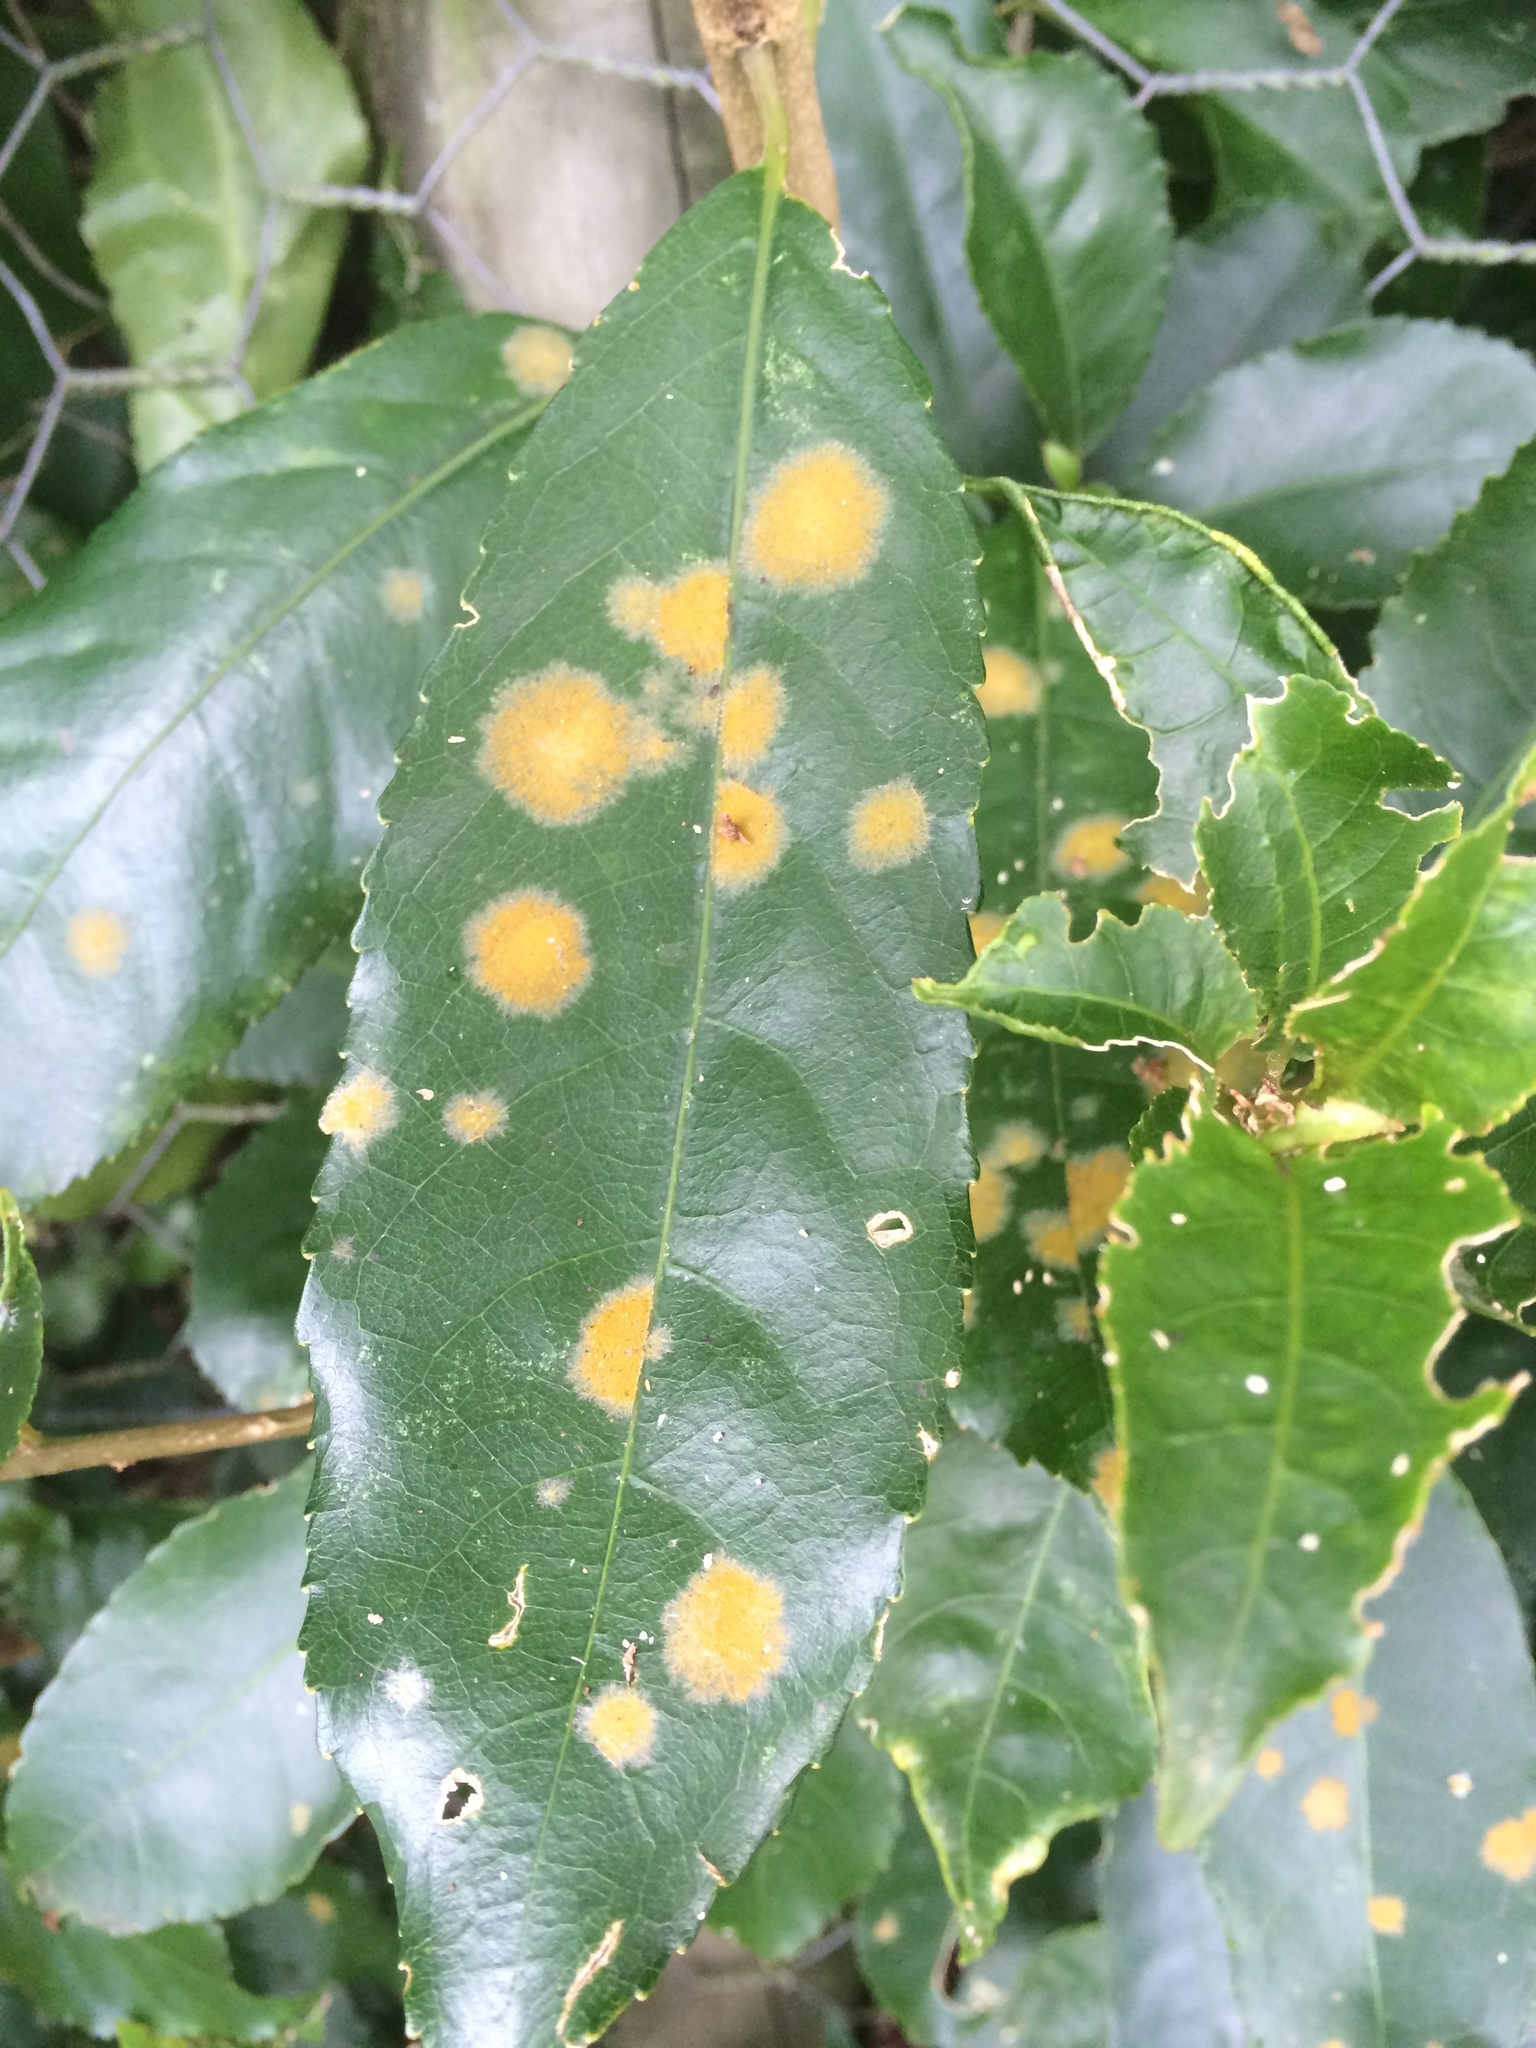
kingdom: Plantae
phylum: Chlorophyta
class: Ulvophyceae
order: Trentepohliales
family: Trentepohliaceae
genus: Cephaleuros
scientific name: Cephaleuros
